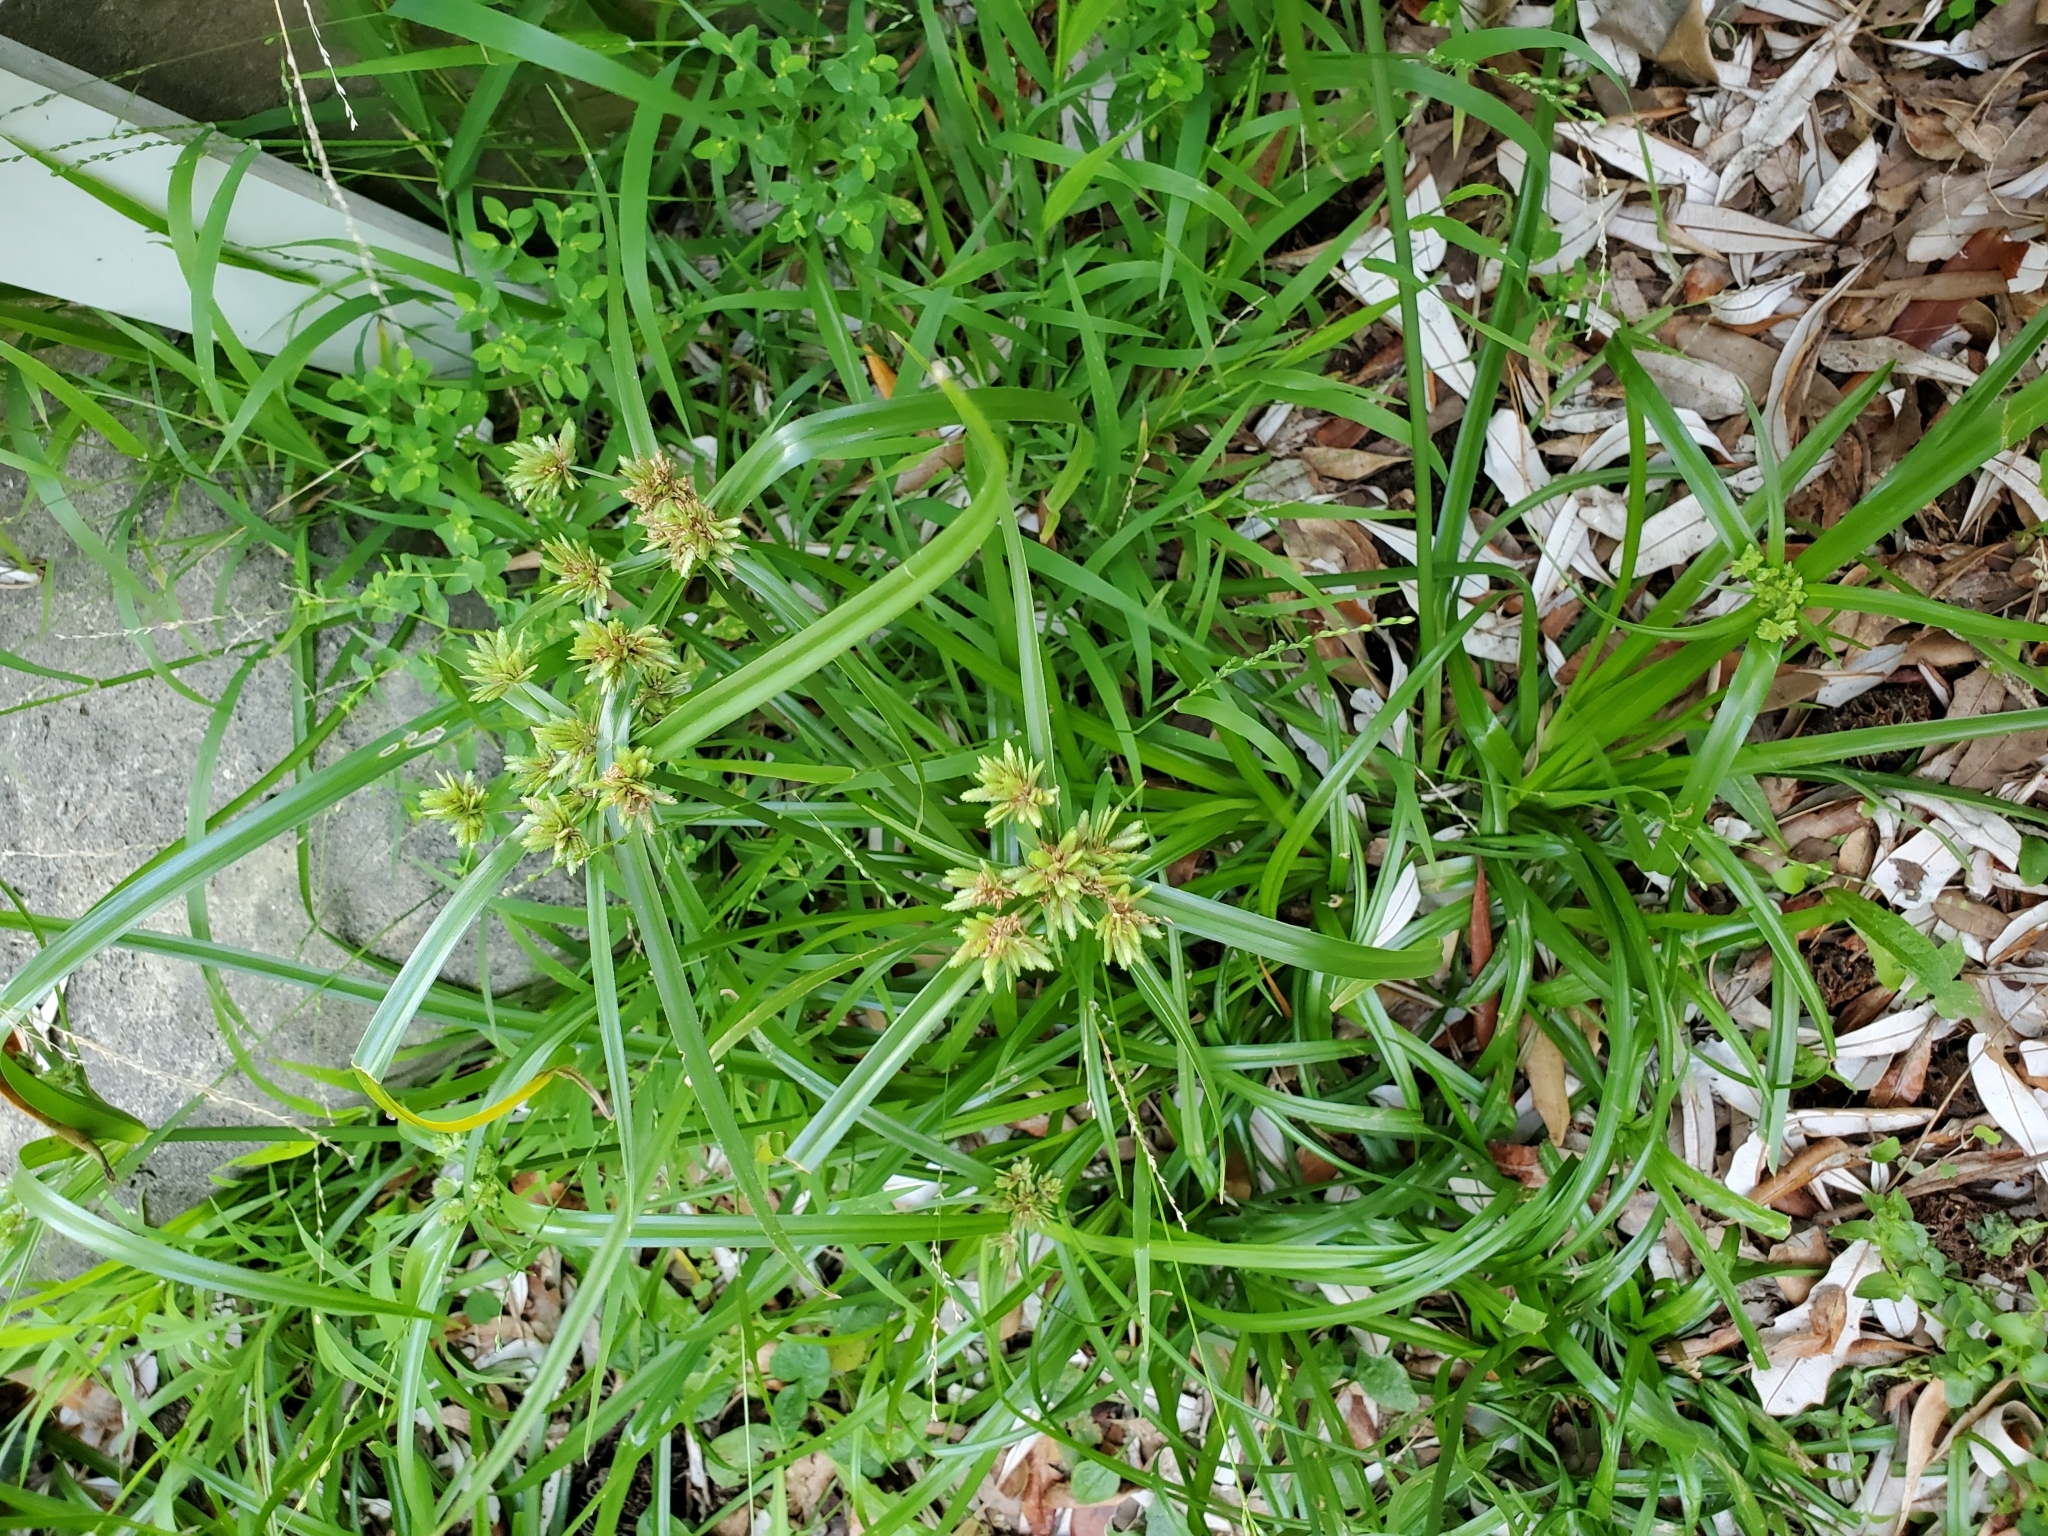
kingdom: Plantae
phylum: Tracheophyta
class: Liliopsida
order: Poales
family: Cyperaceae
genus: Cyperus
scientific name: Cyperus eragrostis
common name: Tall flatsedge
